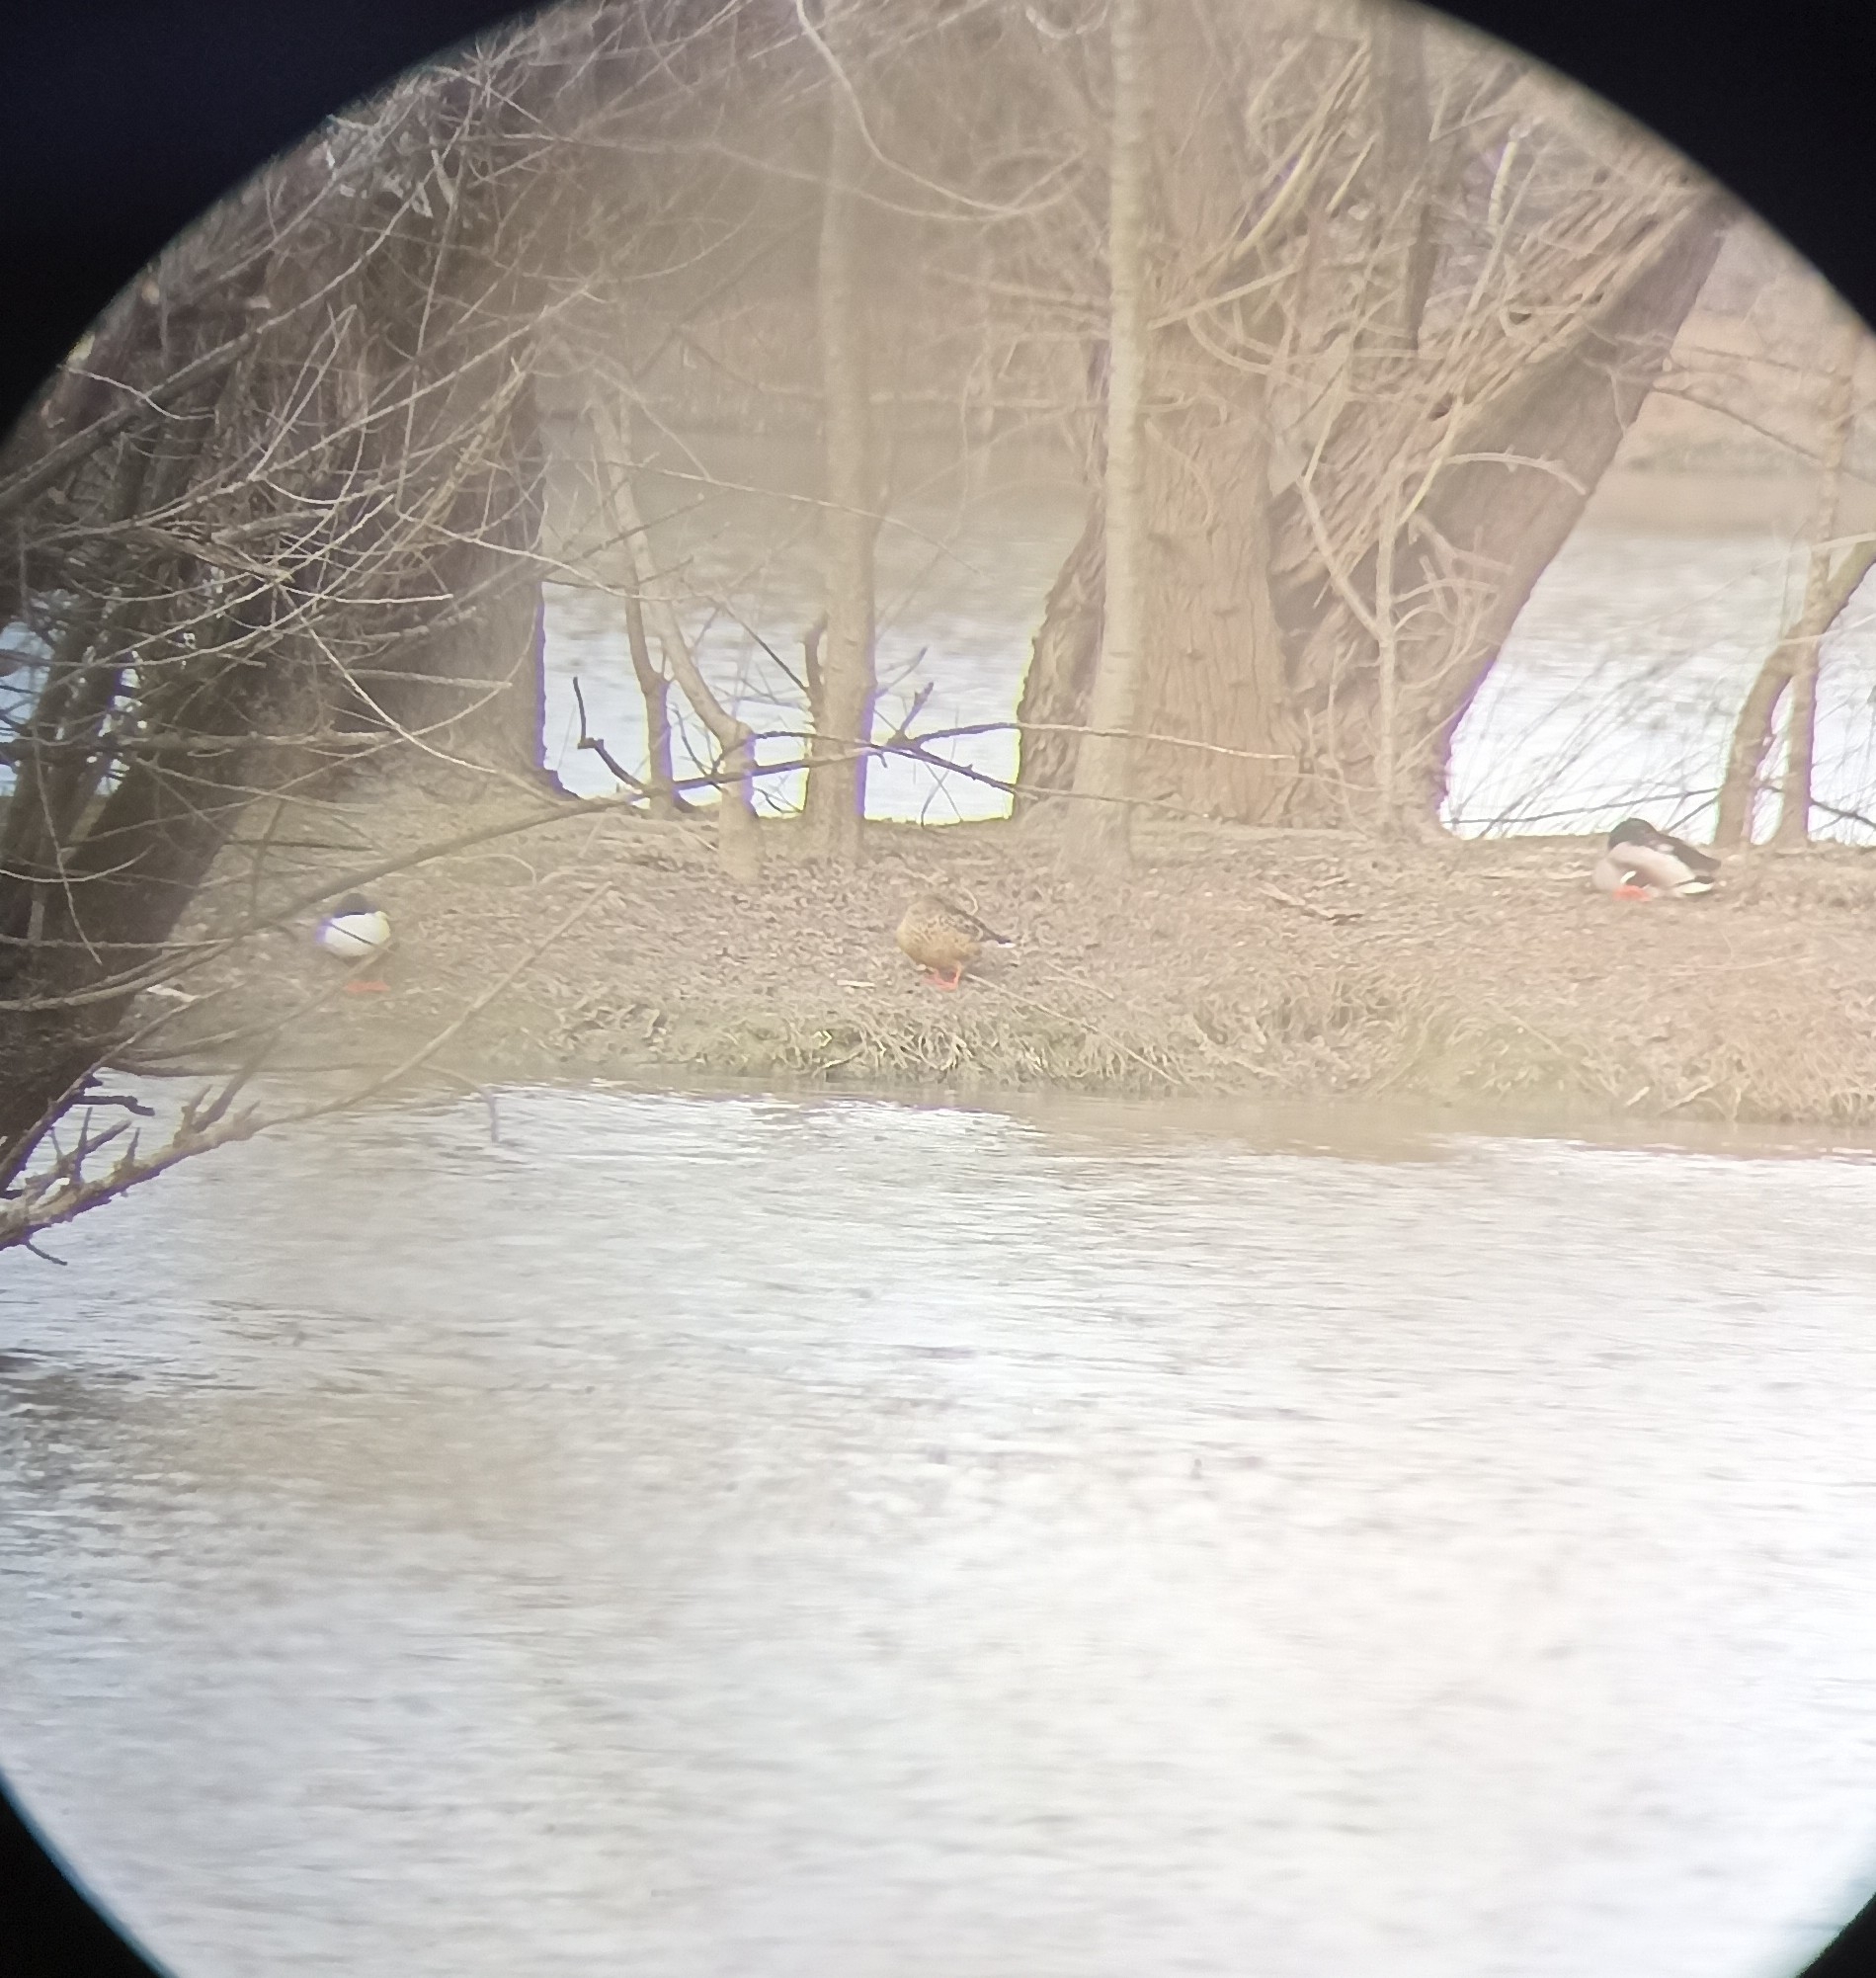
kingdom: Animalia
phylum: Chordata
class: Aves
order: Anseriformes
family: Anatidae
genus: Spatula
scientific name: Spatula clypeata
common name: Northern shoveler
